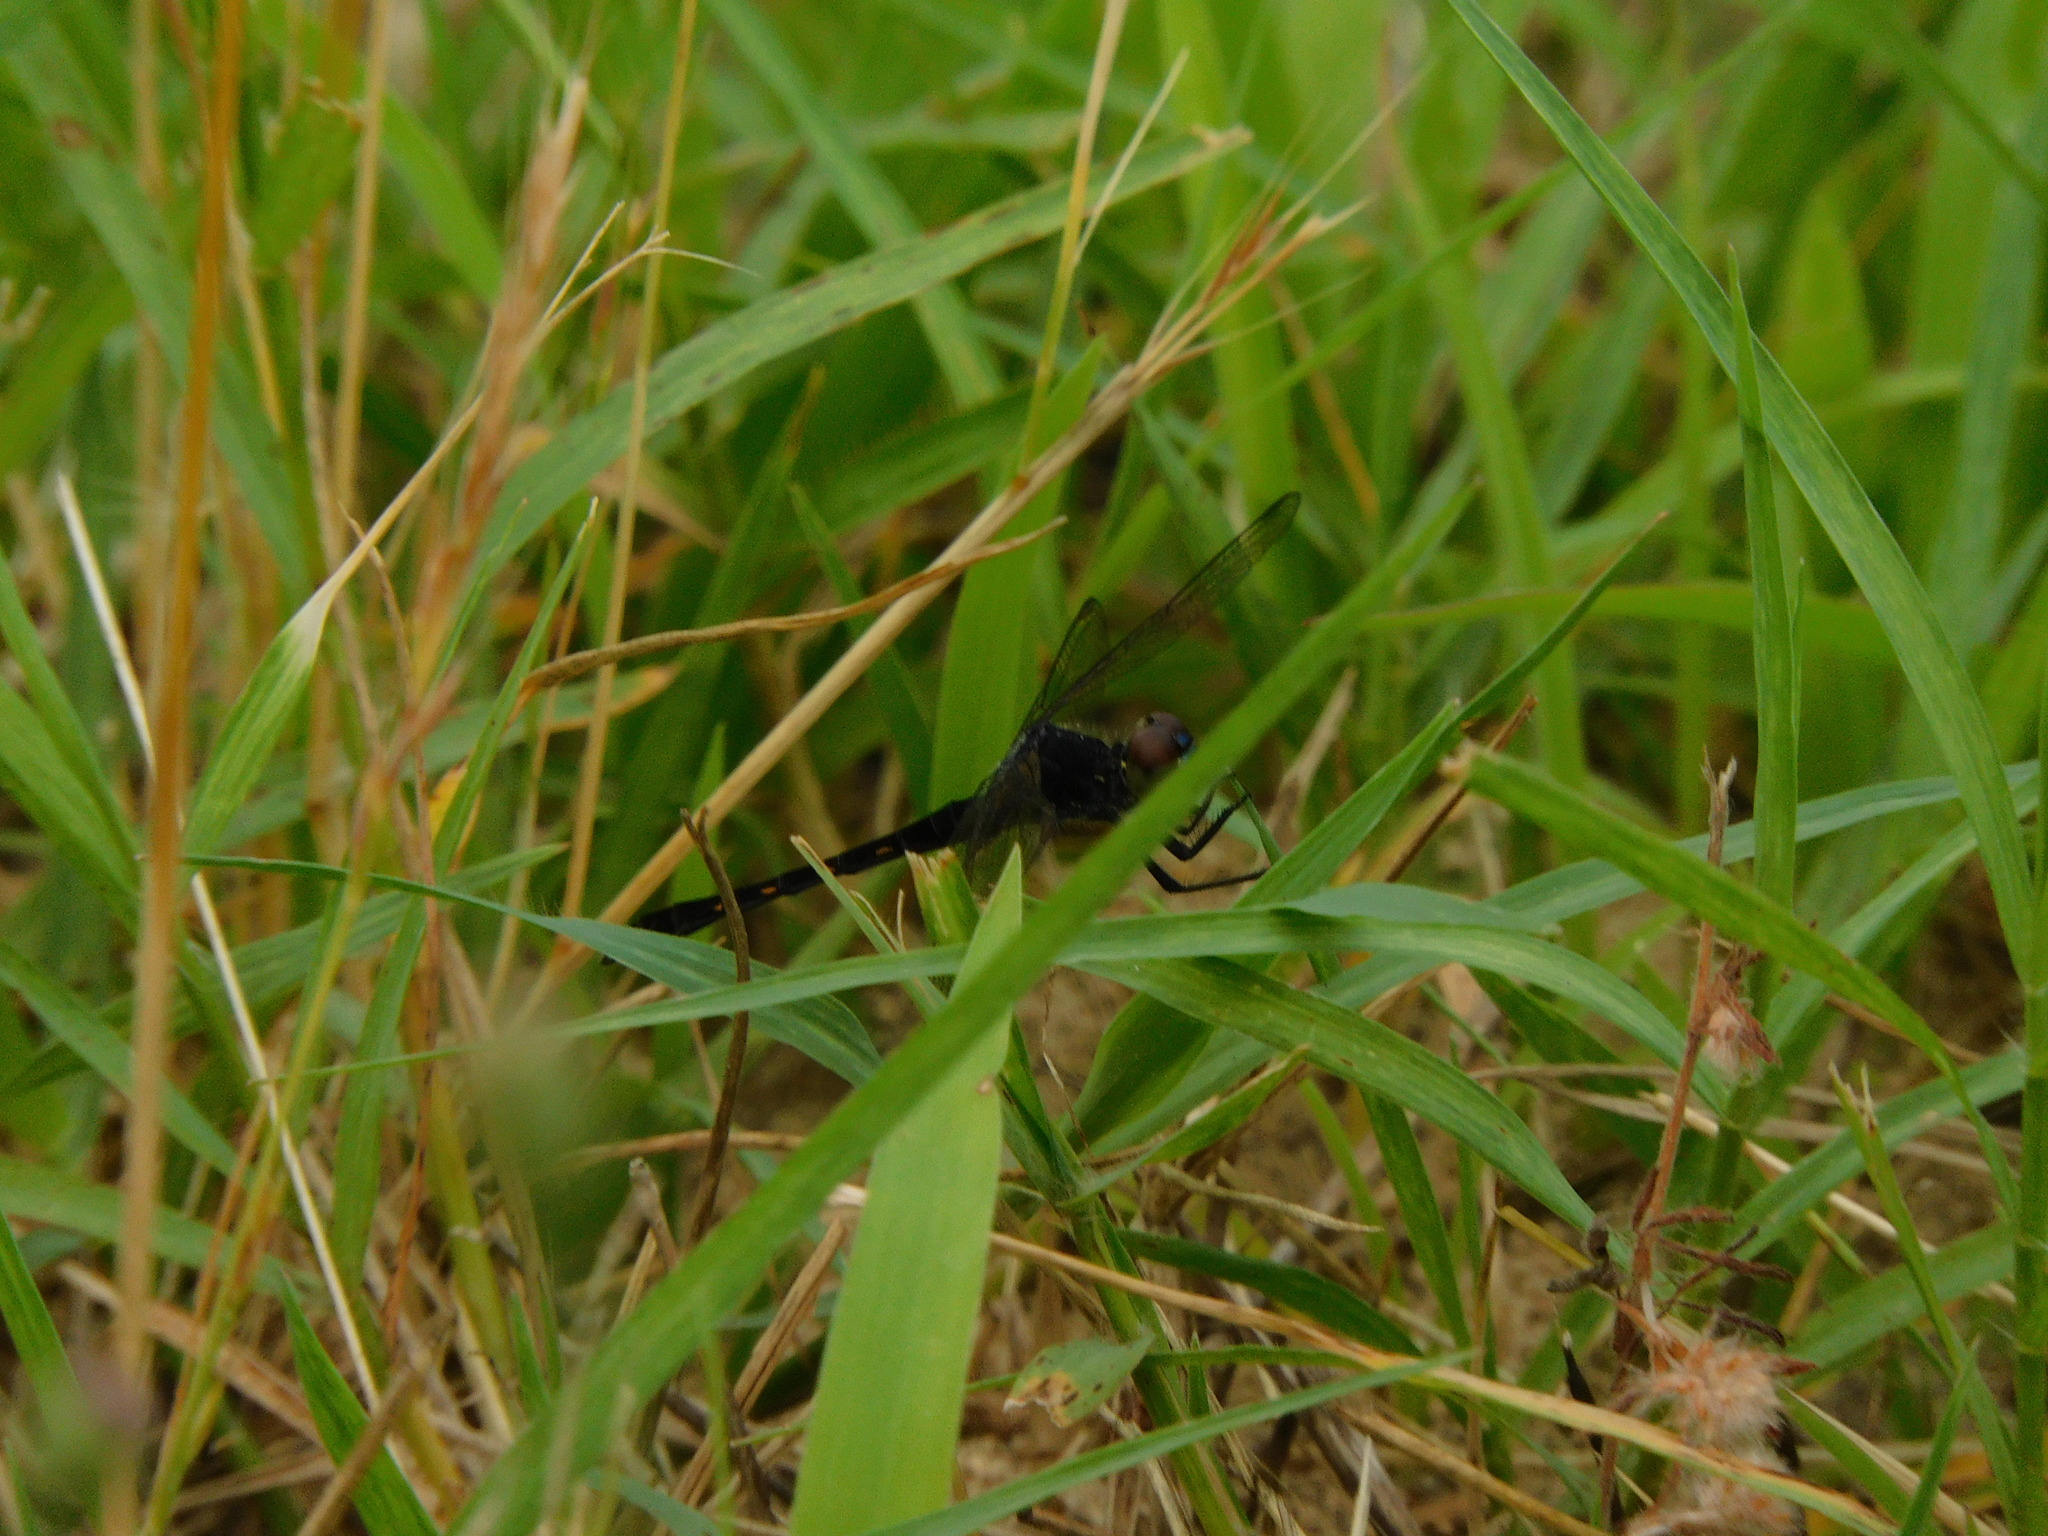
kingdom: Animalia
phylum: Arthropoda
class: Insecta
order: Odonata
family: Libellulidae
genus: Erythrodiplax
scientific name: Erythrodiplax berenice
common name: Seaside dragonlet
